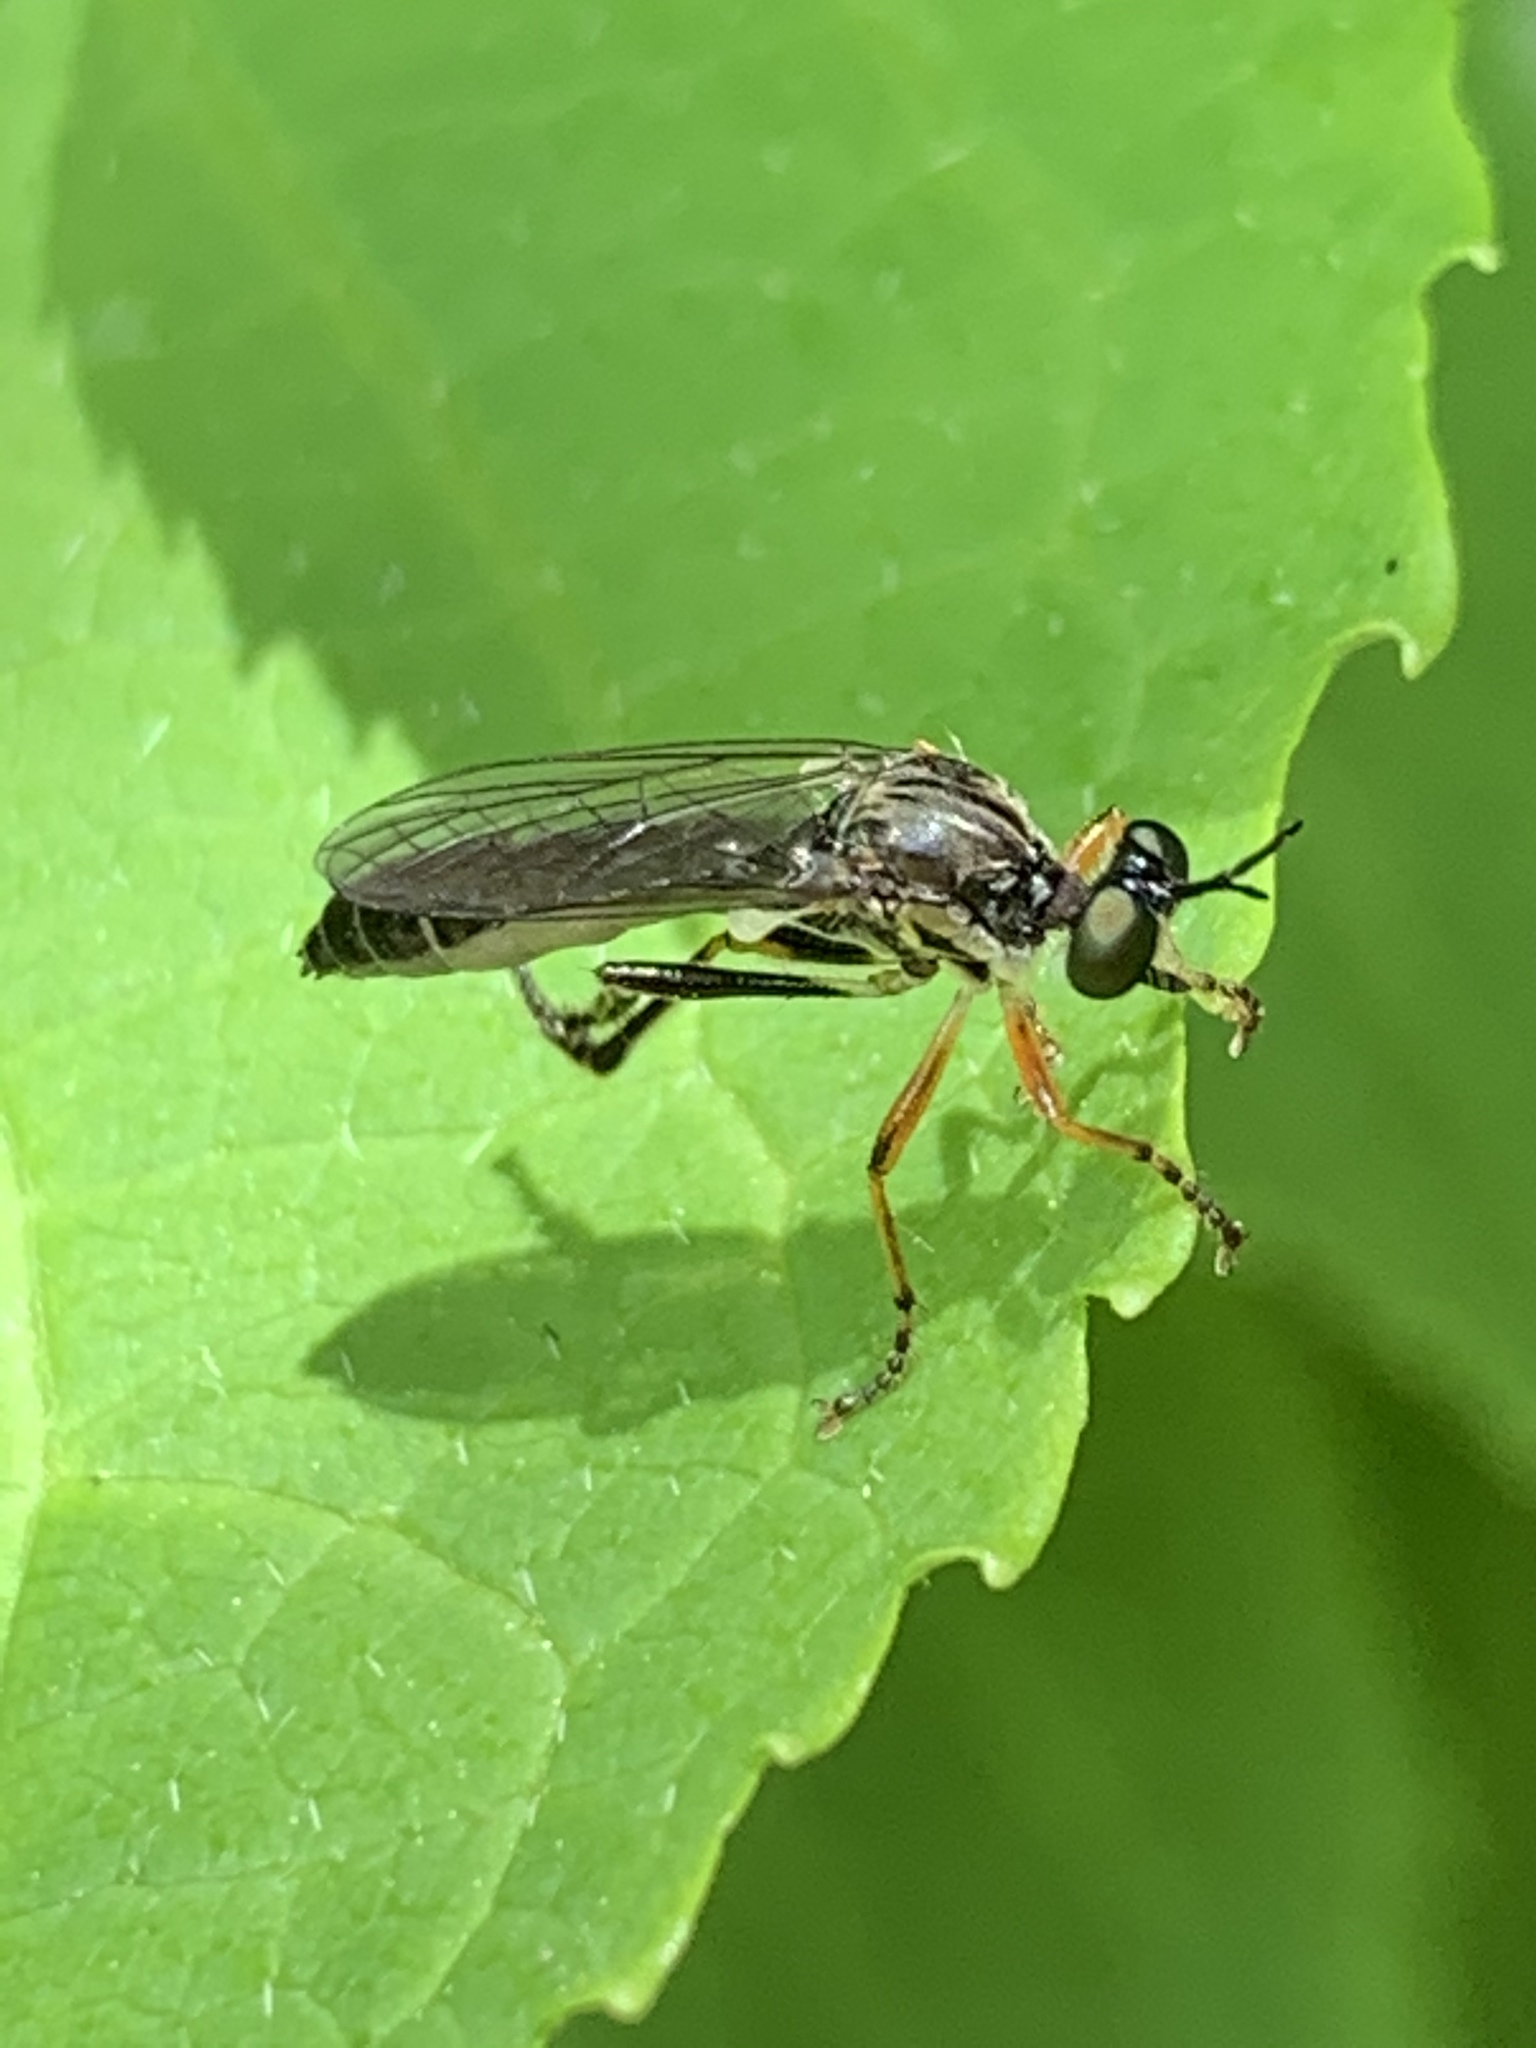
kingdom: Animalia
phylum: Arthropoda
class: Insecta
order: Diptera
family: Asilidae
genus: Dioctria
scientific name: Dioctria hyalipennis
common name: Stripe-legged robberfly
